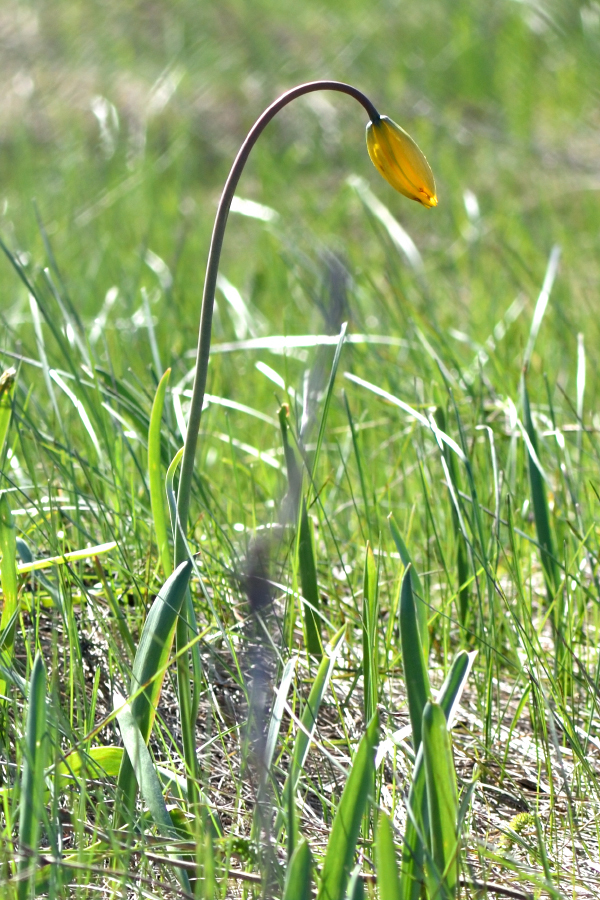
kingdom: Plantae
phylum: Tracheophyta
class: Liliopsida
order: Liliales
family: Liliaceae
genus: Tulipa
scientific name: Tulipa sylvestris
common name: Wild tulip
